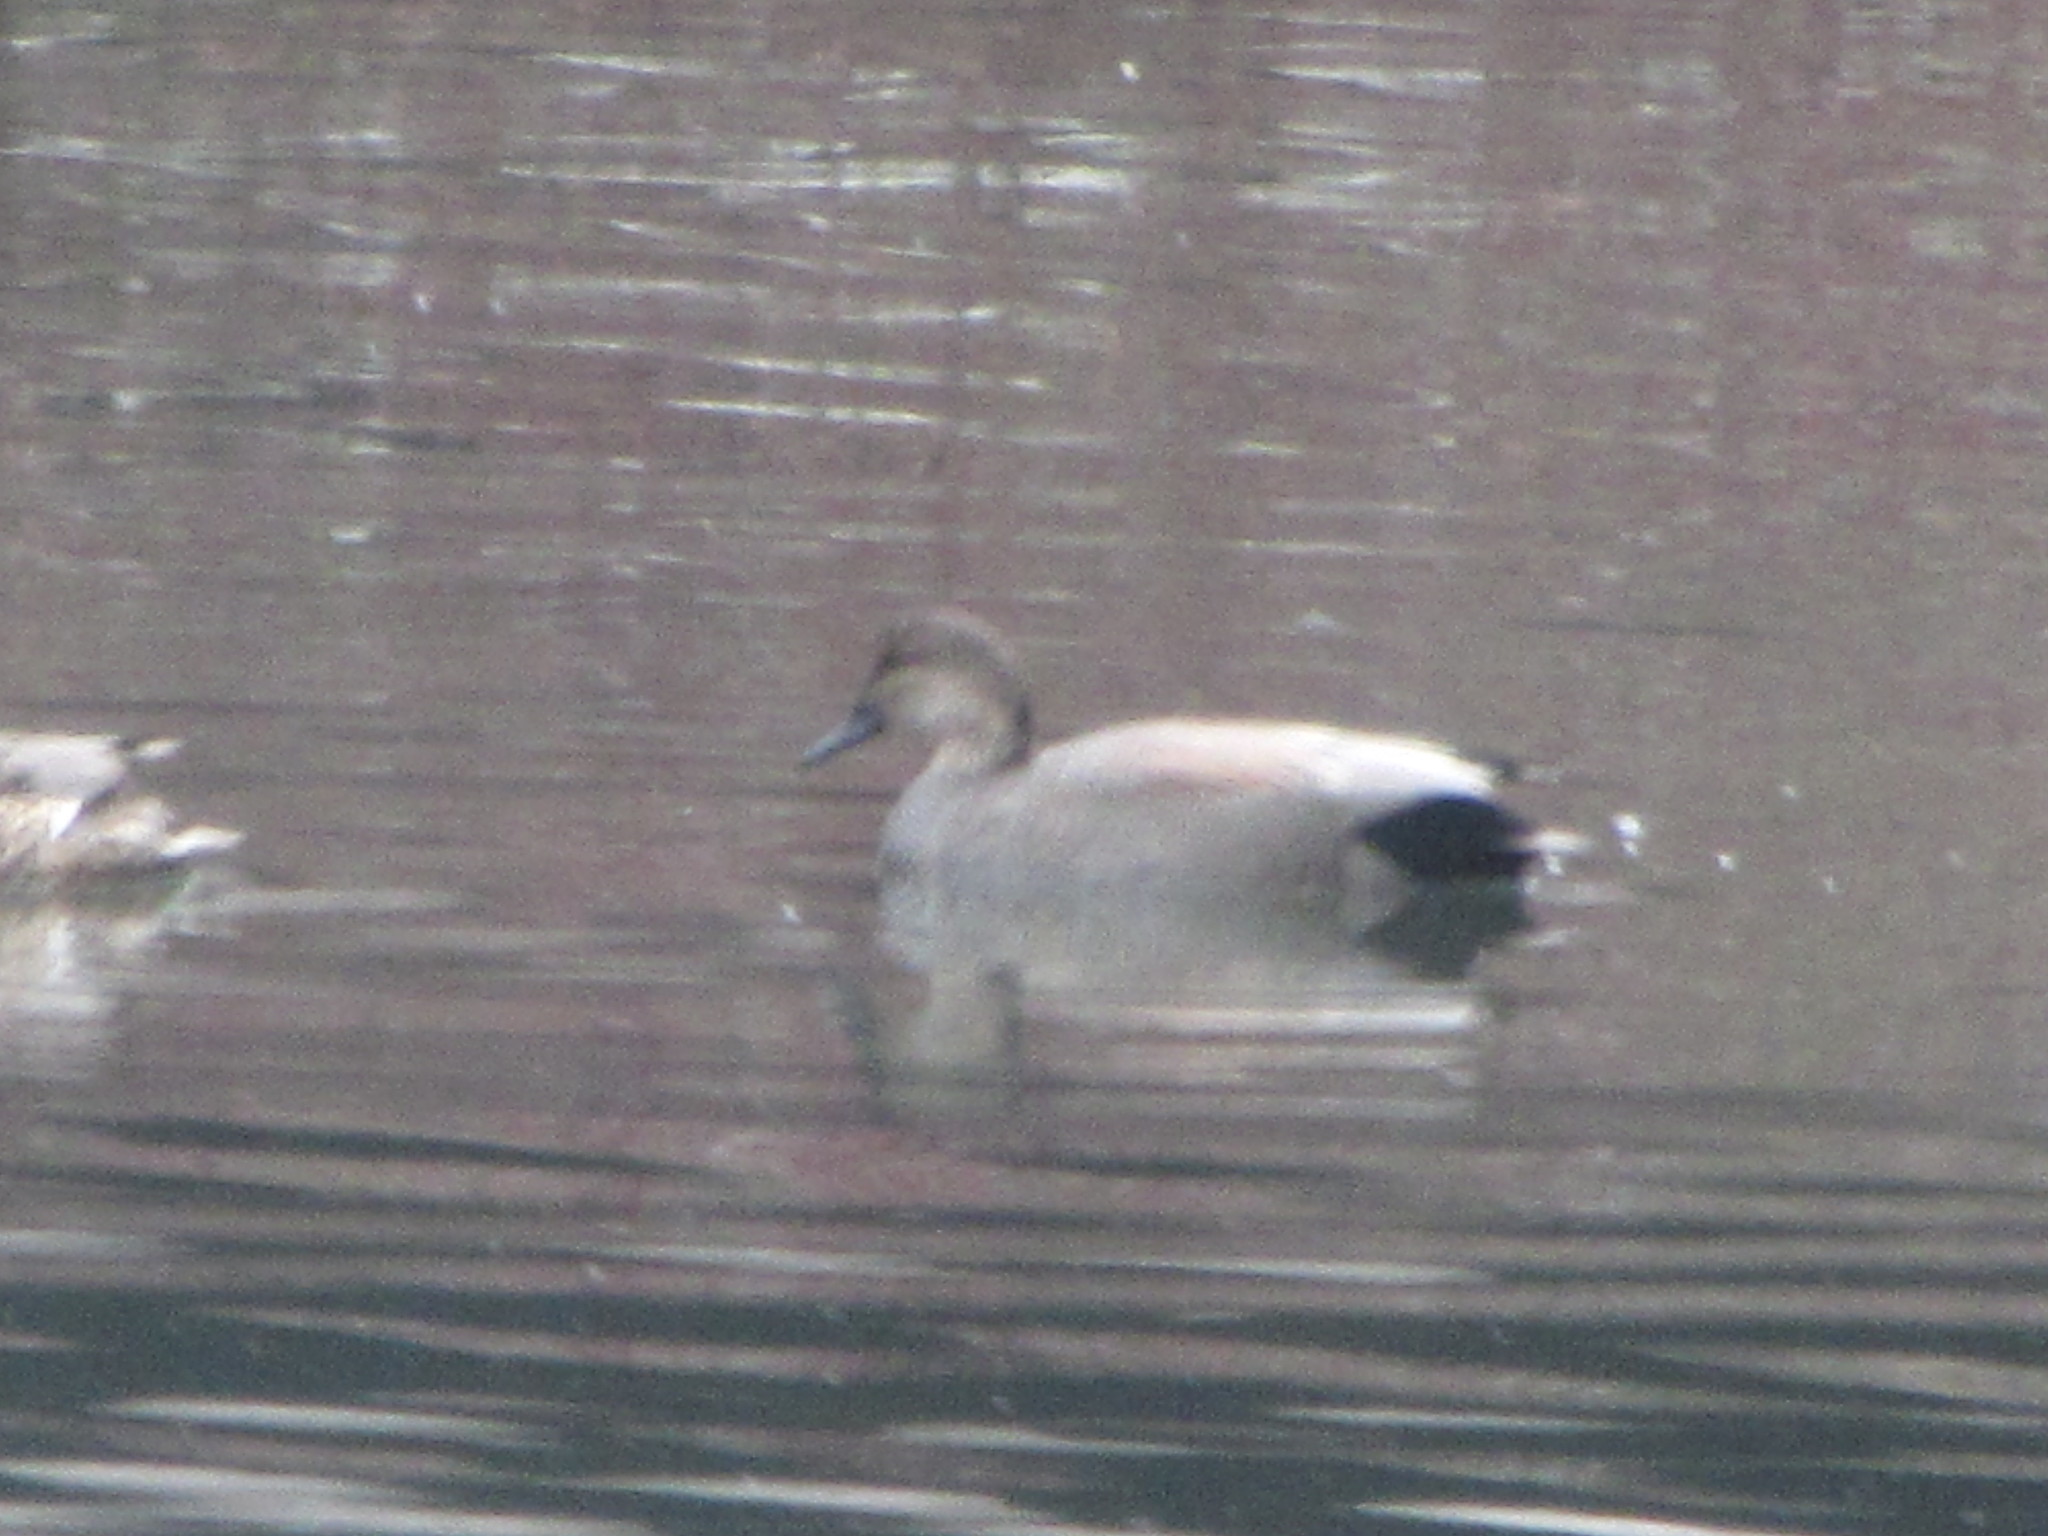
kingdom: Animalia
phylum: Chordata
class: Aves
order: Anseriformes
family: Anatidae
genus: Mareca
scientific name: Mareca strepera
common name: Gadwall
